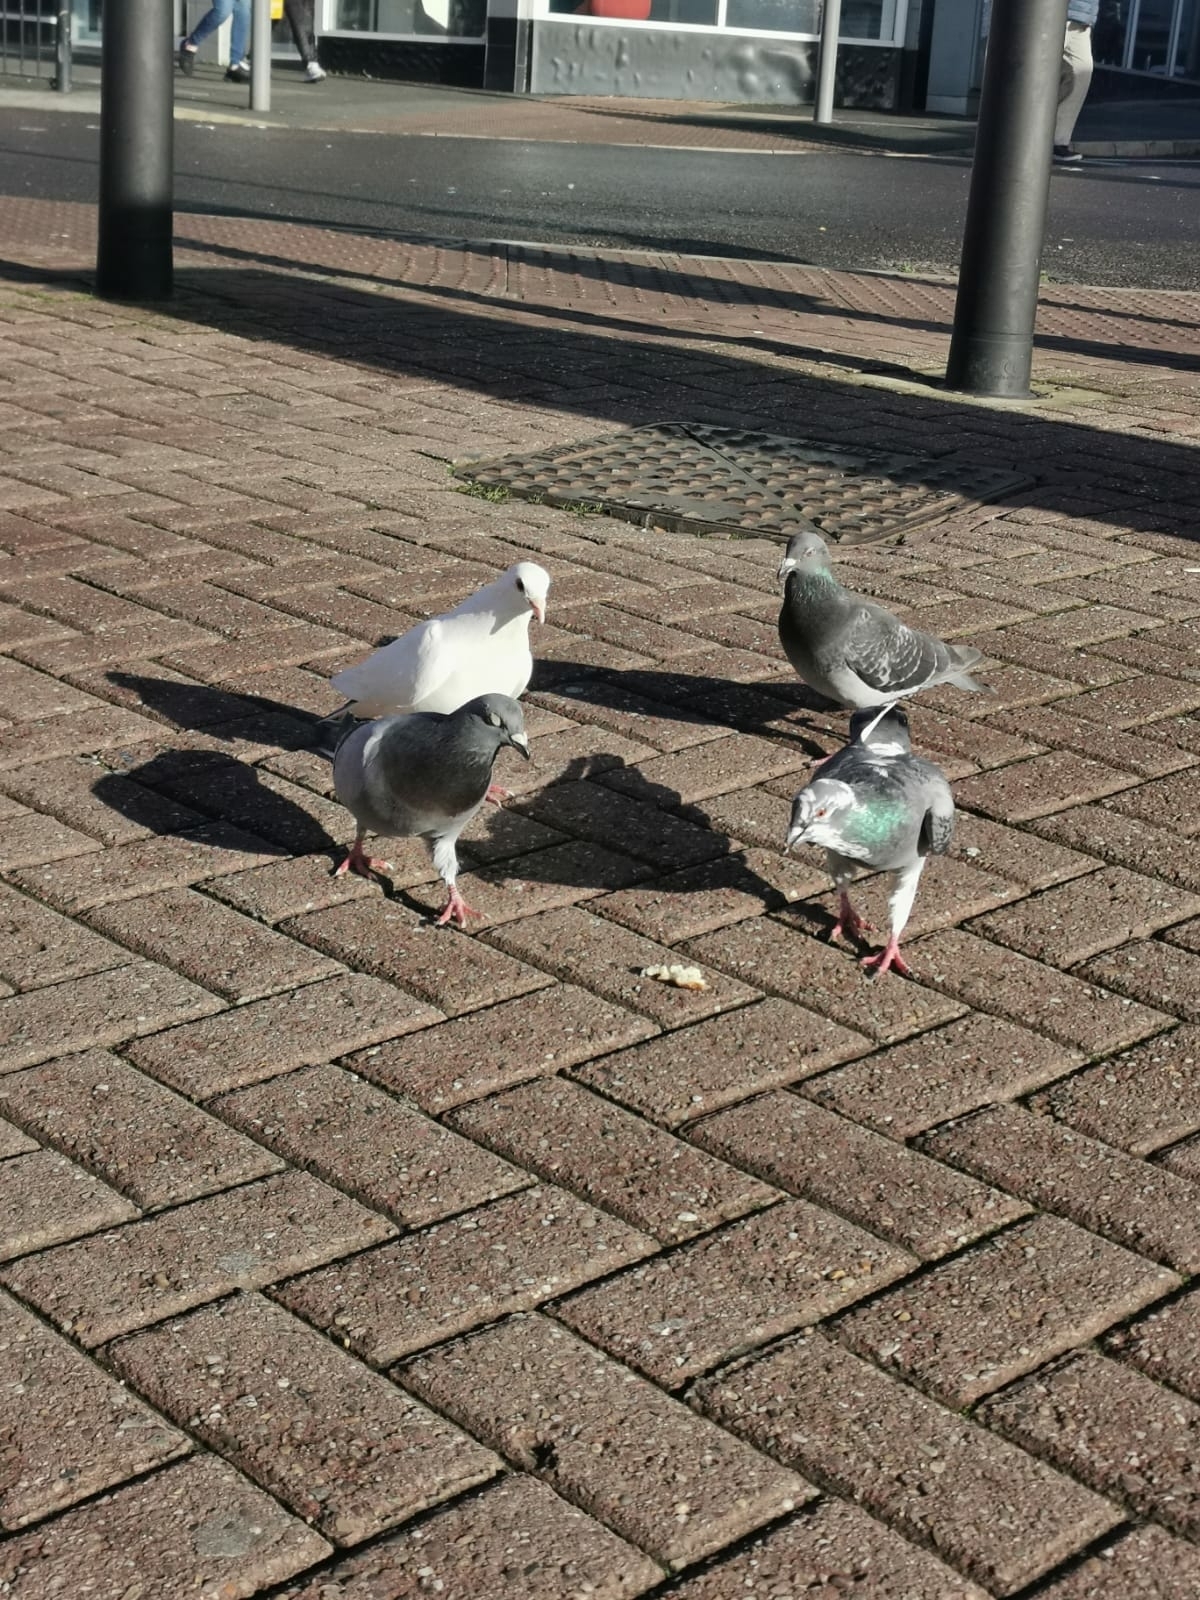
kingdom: Animalia
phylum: Chordata
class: Aves
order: Columbiformes
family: Columbidae
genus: Columba
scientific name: Columba livia
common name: Rock pigeon
